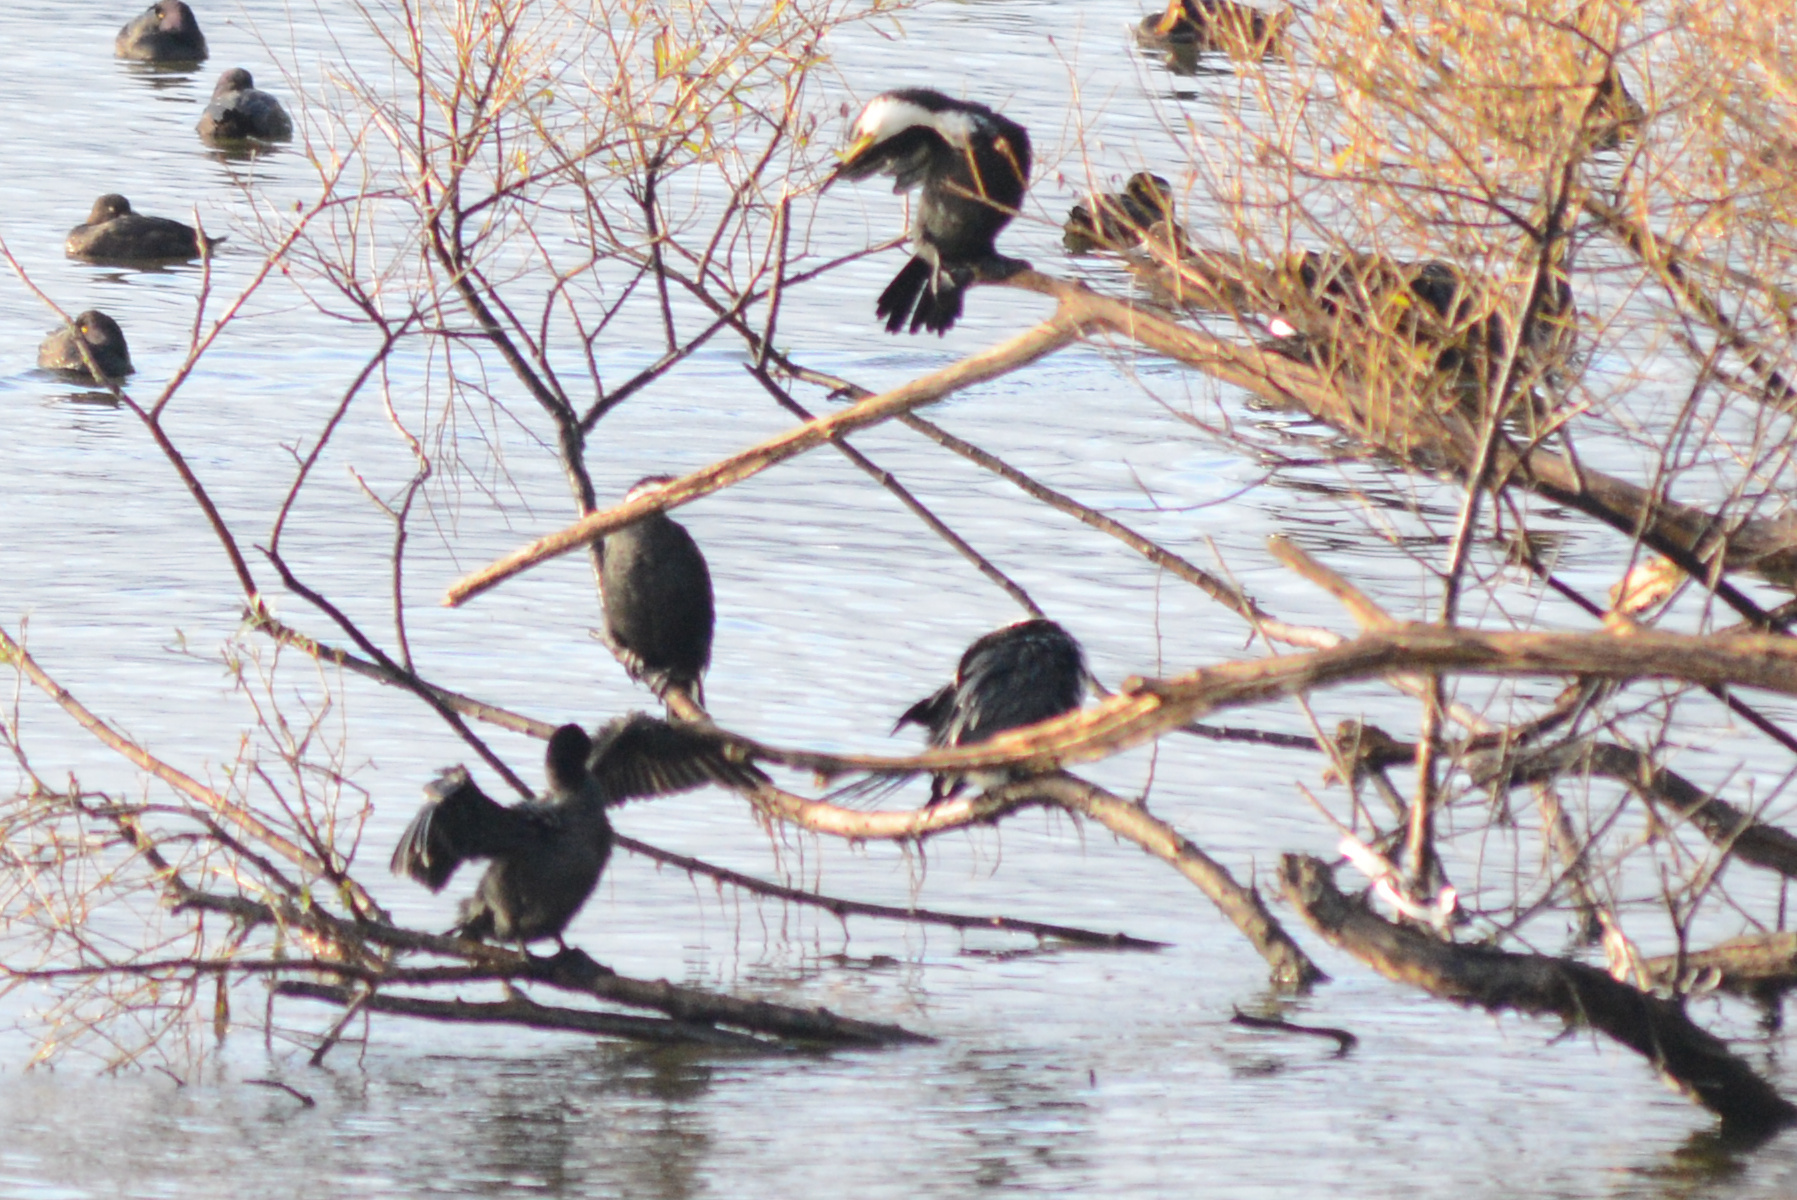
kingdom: Animalia
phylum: Chordata
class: Aves
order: Suliformes
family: Phalacrocoracidae
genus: Microcarbo
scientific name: Microcarbo melanoleucos
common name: Little pied cormorant
